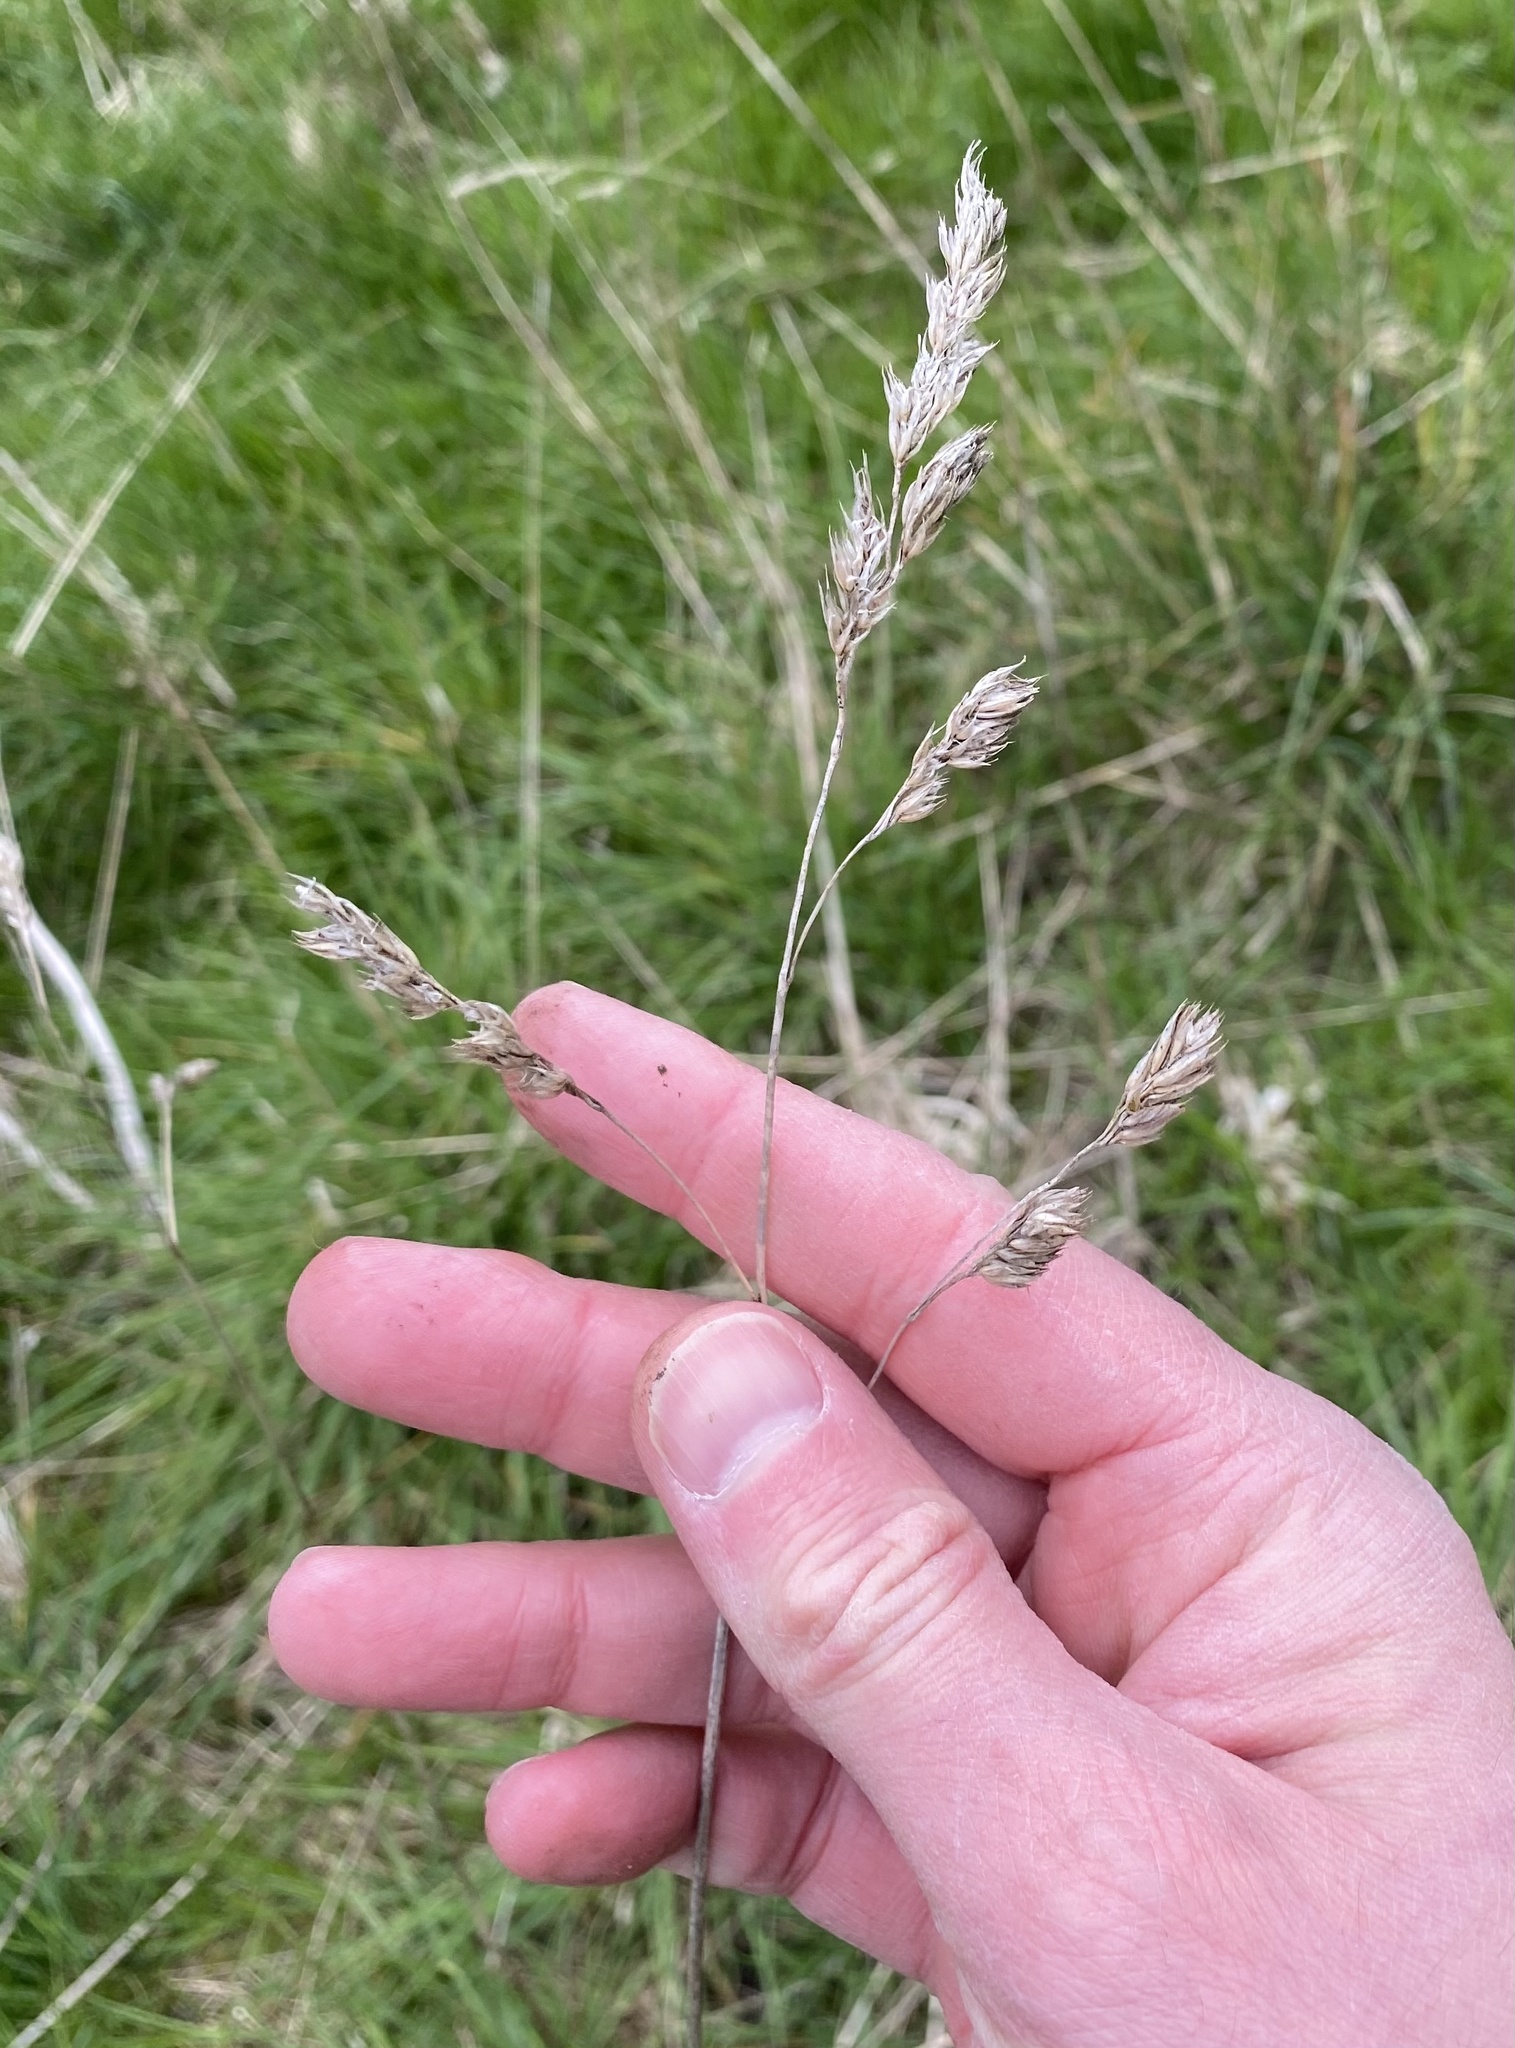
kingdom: Plantae
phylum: Tracheophyta
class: Liliopsida
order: Poales
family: Poaceae
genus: Dactylis
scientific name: Dactylis glomerata
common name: Orchardgrass
